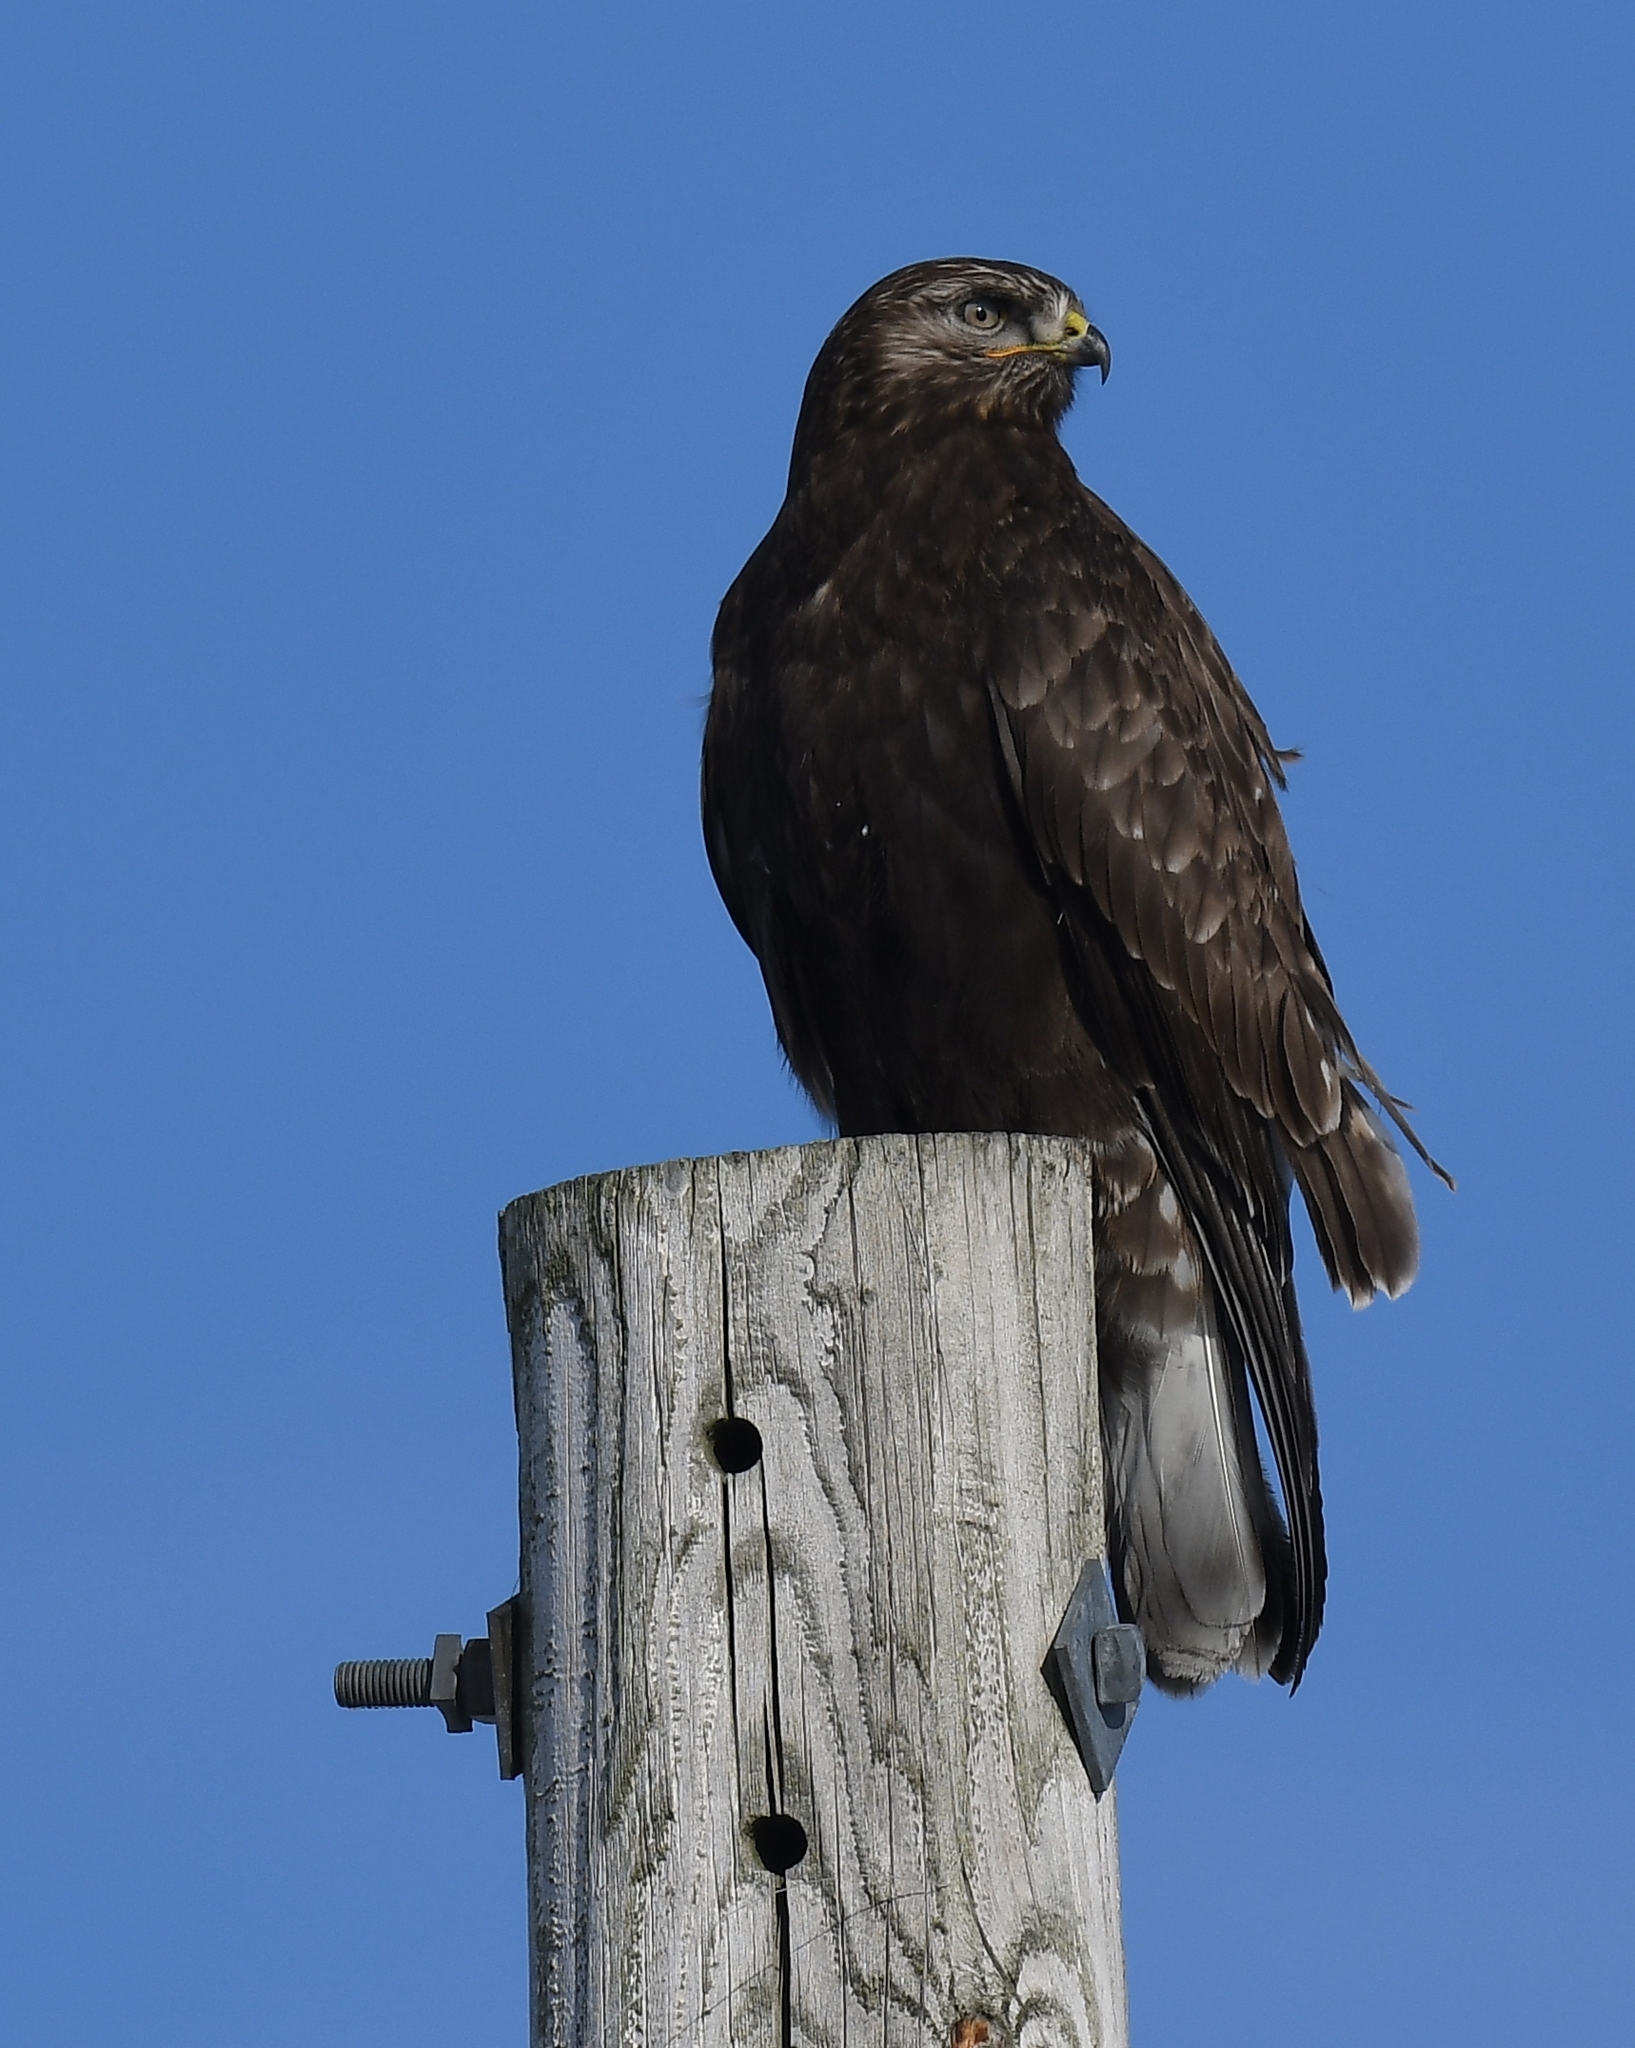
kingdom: Animalia
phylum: Chordata
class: Aves
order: Accipitriformes
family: Accipitridae
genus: Buteo
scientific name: Buteo lagopus
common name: Rough-legged buzzard
